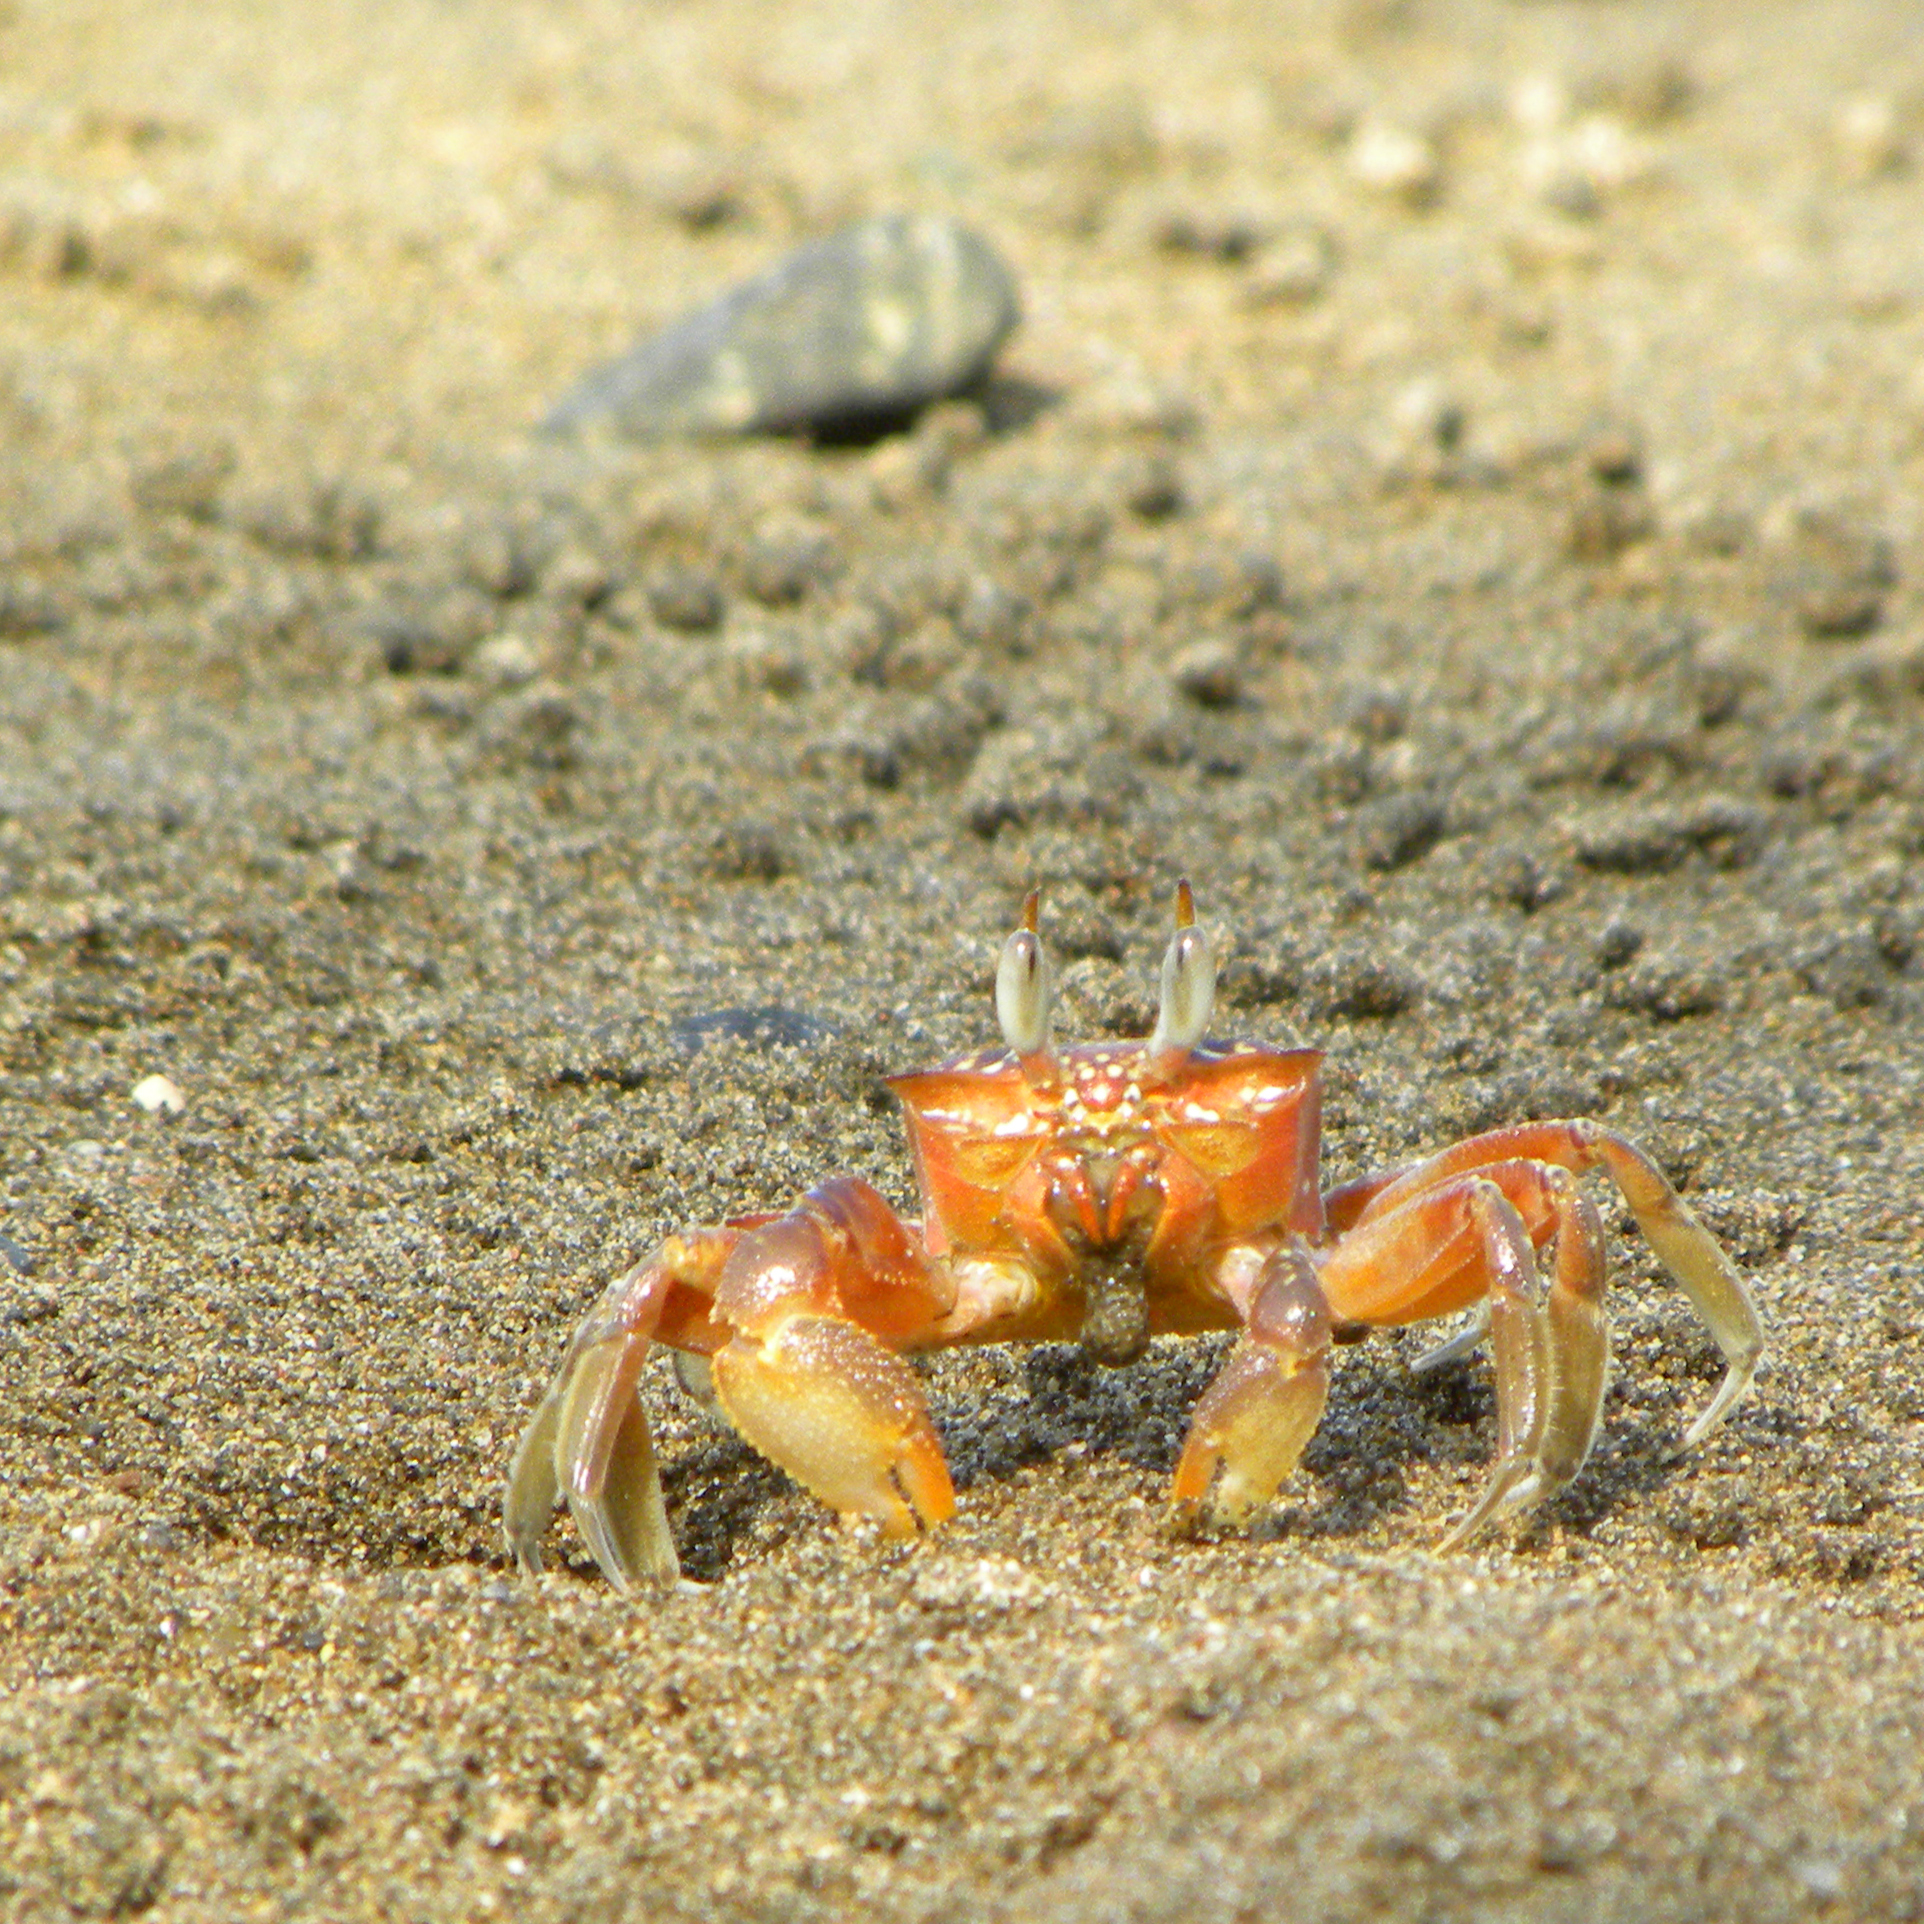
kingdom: Animalia
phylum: Arthropoda
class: Malacostraca
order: Decapoda
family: Ocypodidae
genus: Ocypode
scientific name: Ocypode gaudichaudii
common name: Pacific ghost crab
